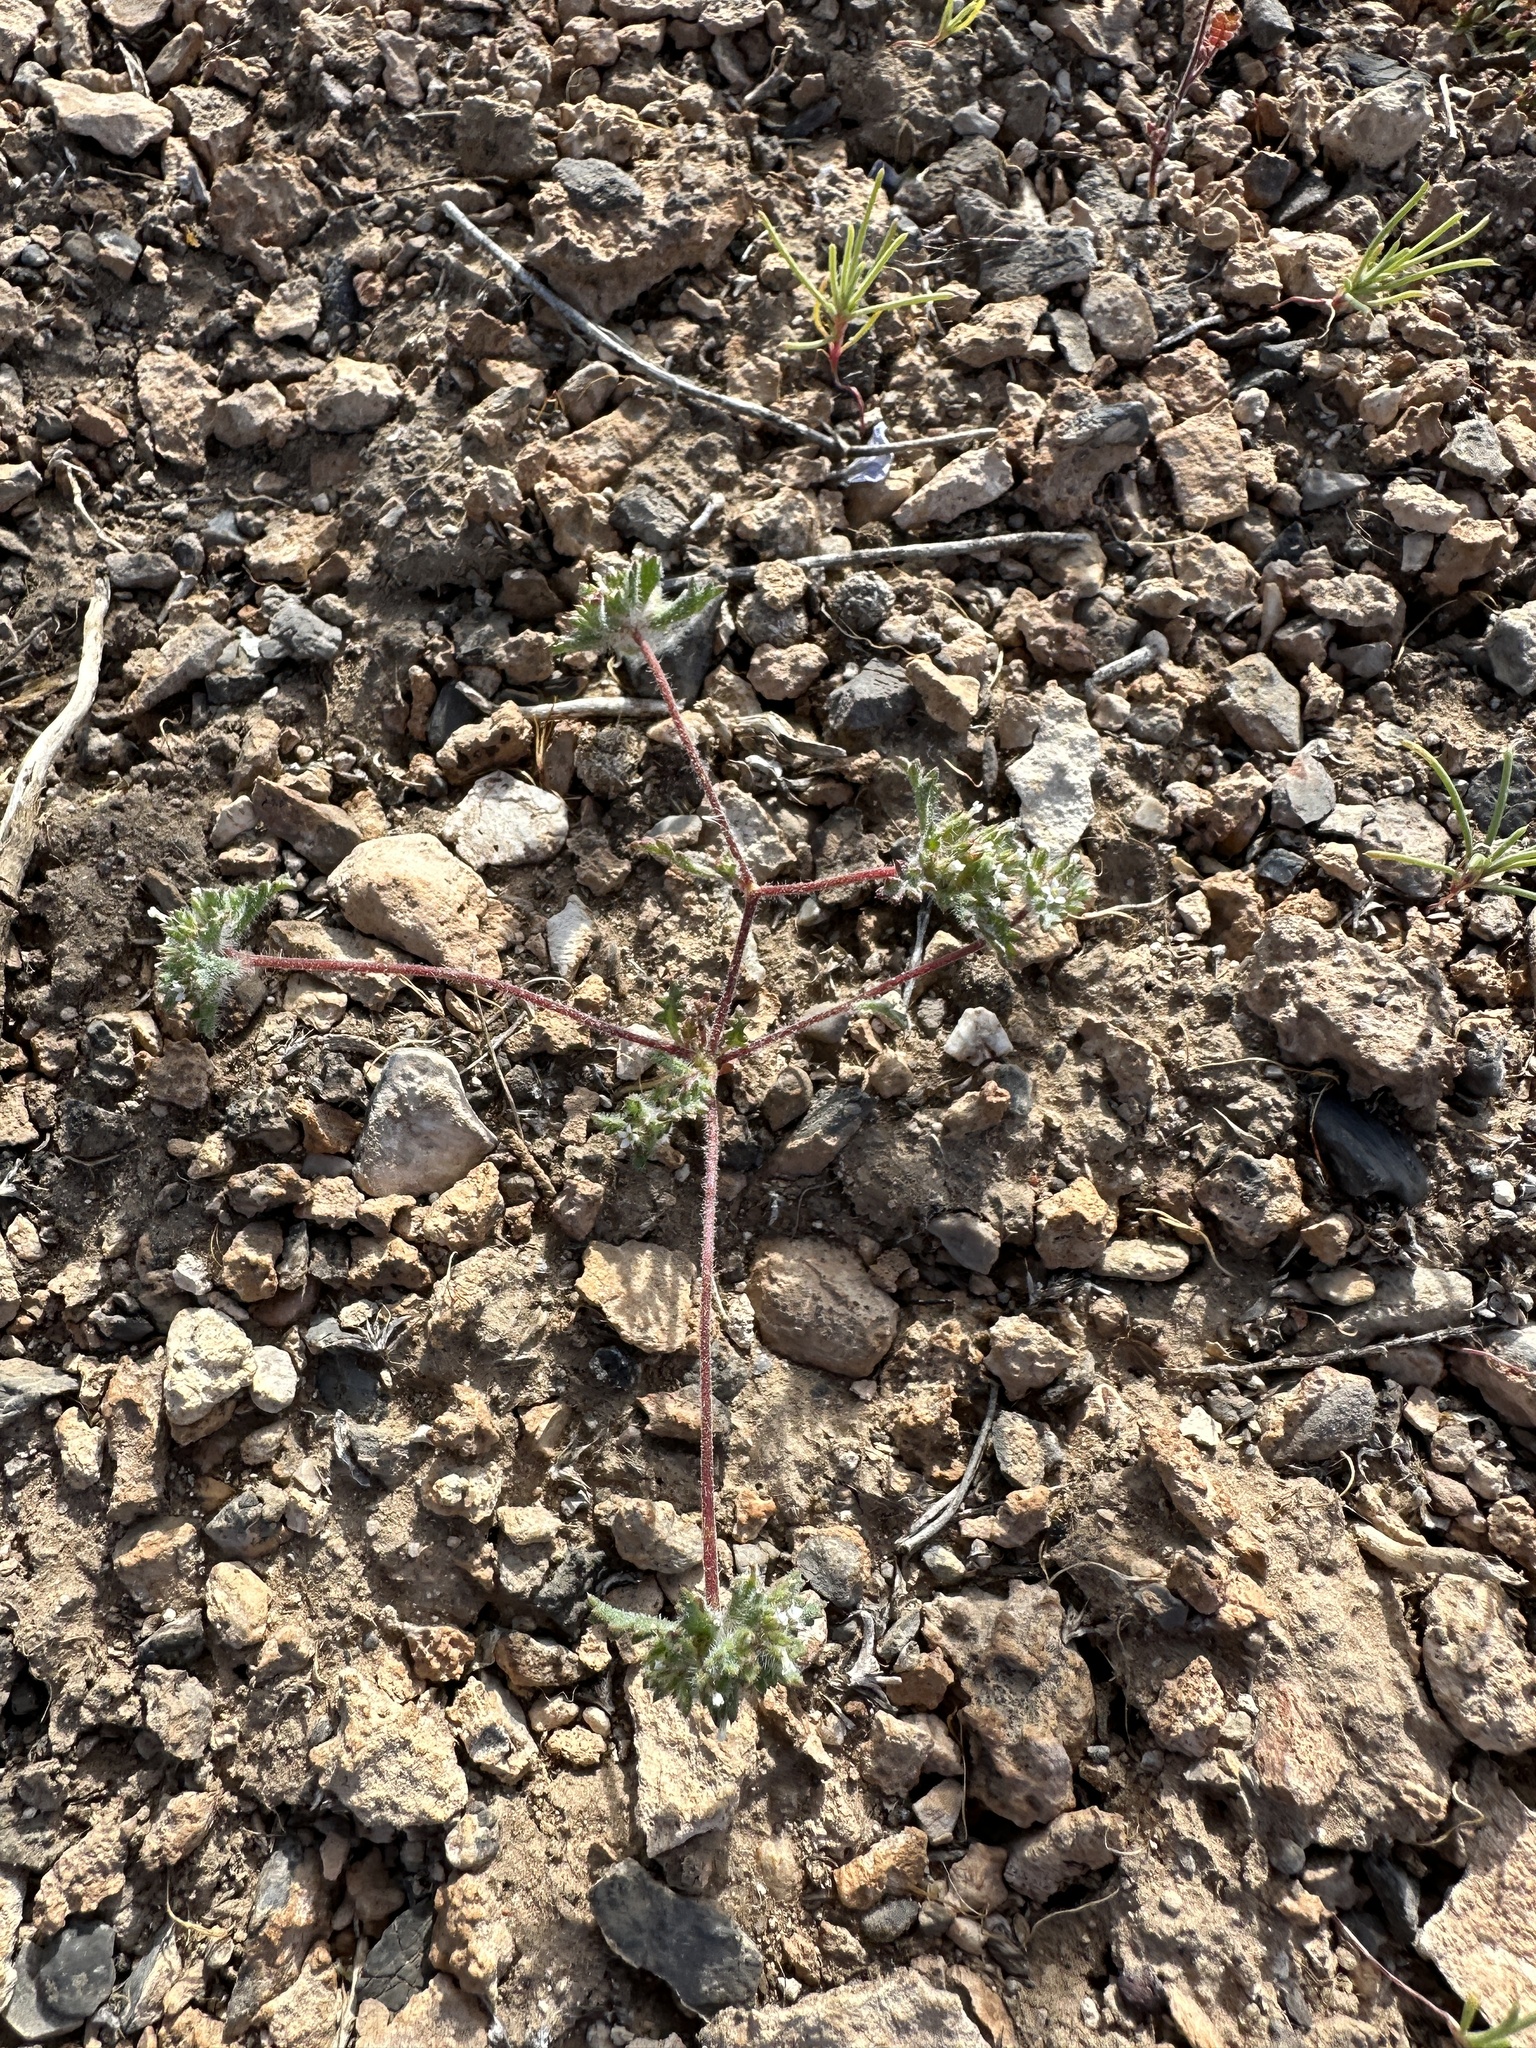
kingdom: Plantae
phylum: Tracheophyta
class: Magnoliopsida
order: Ericales
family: Polemoniaceae
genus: Ipomopsis
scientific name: Ipomopsis polycladon
